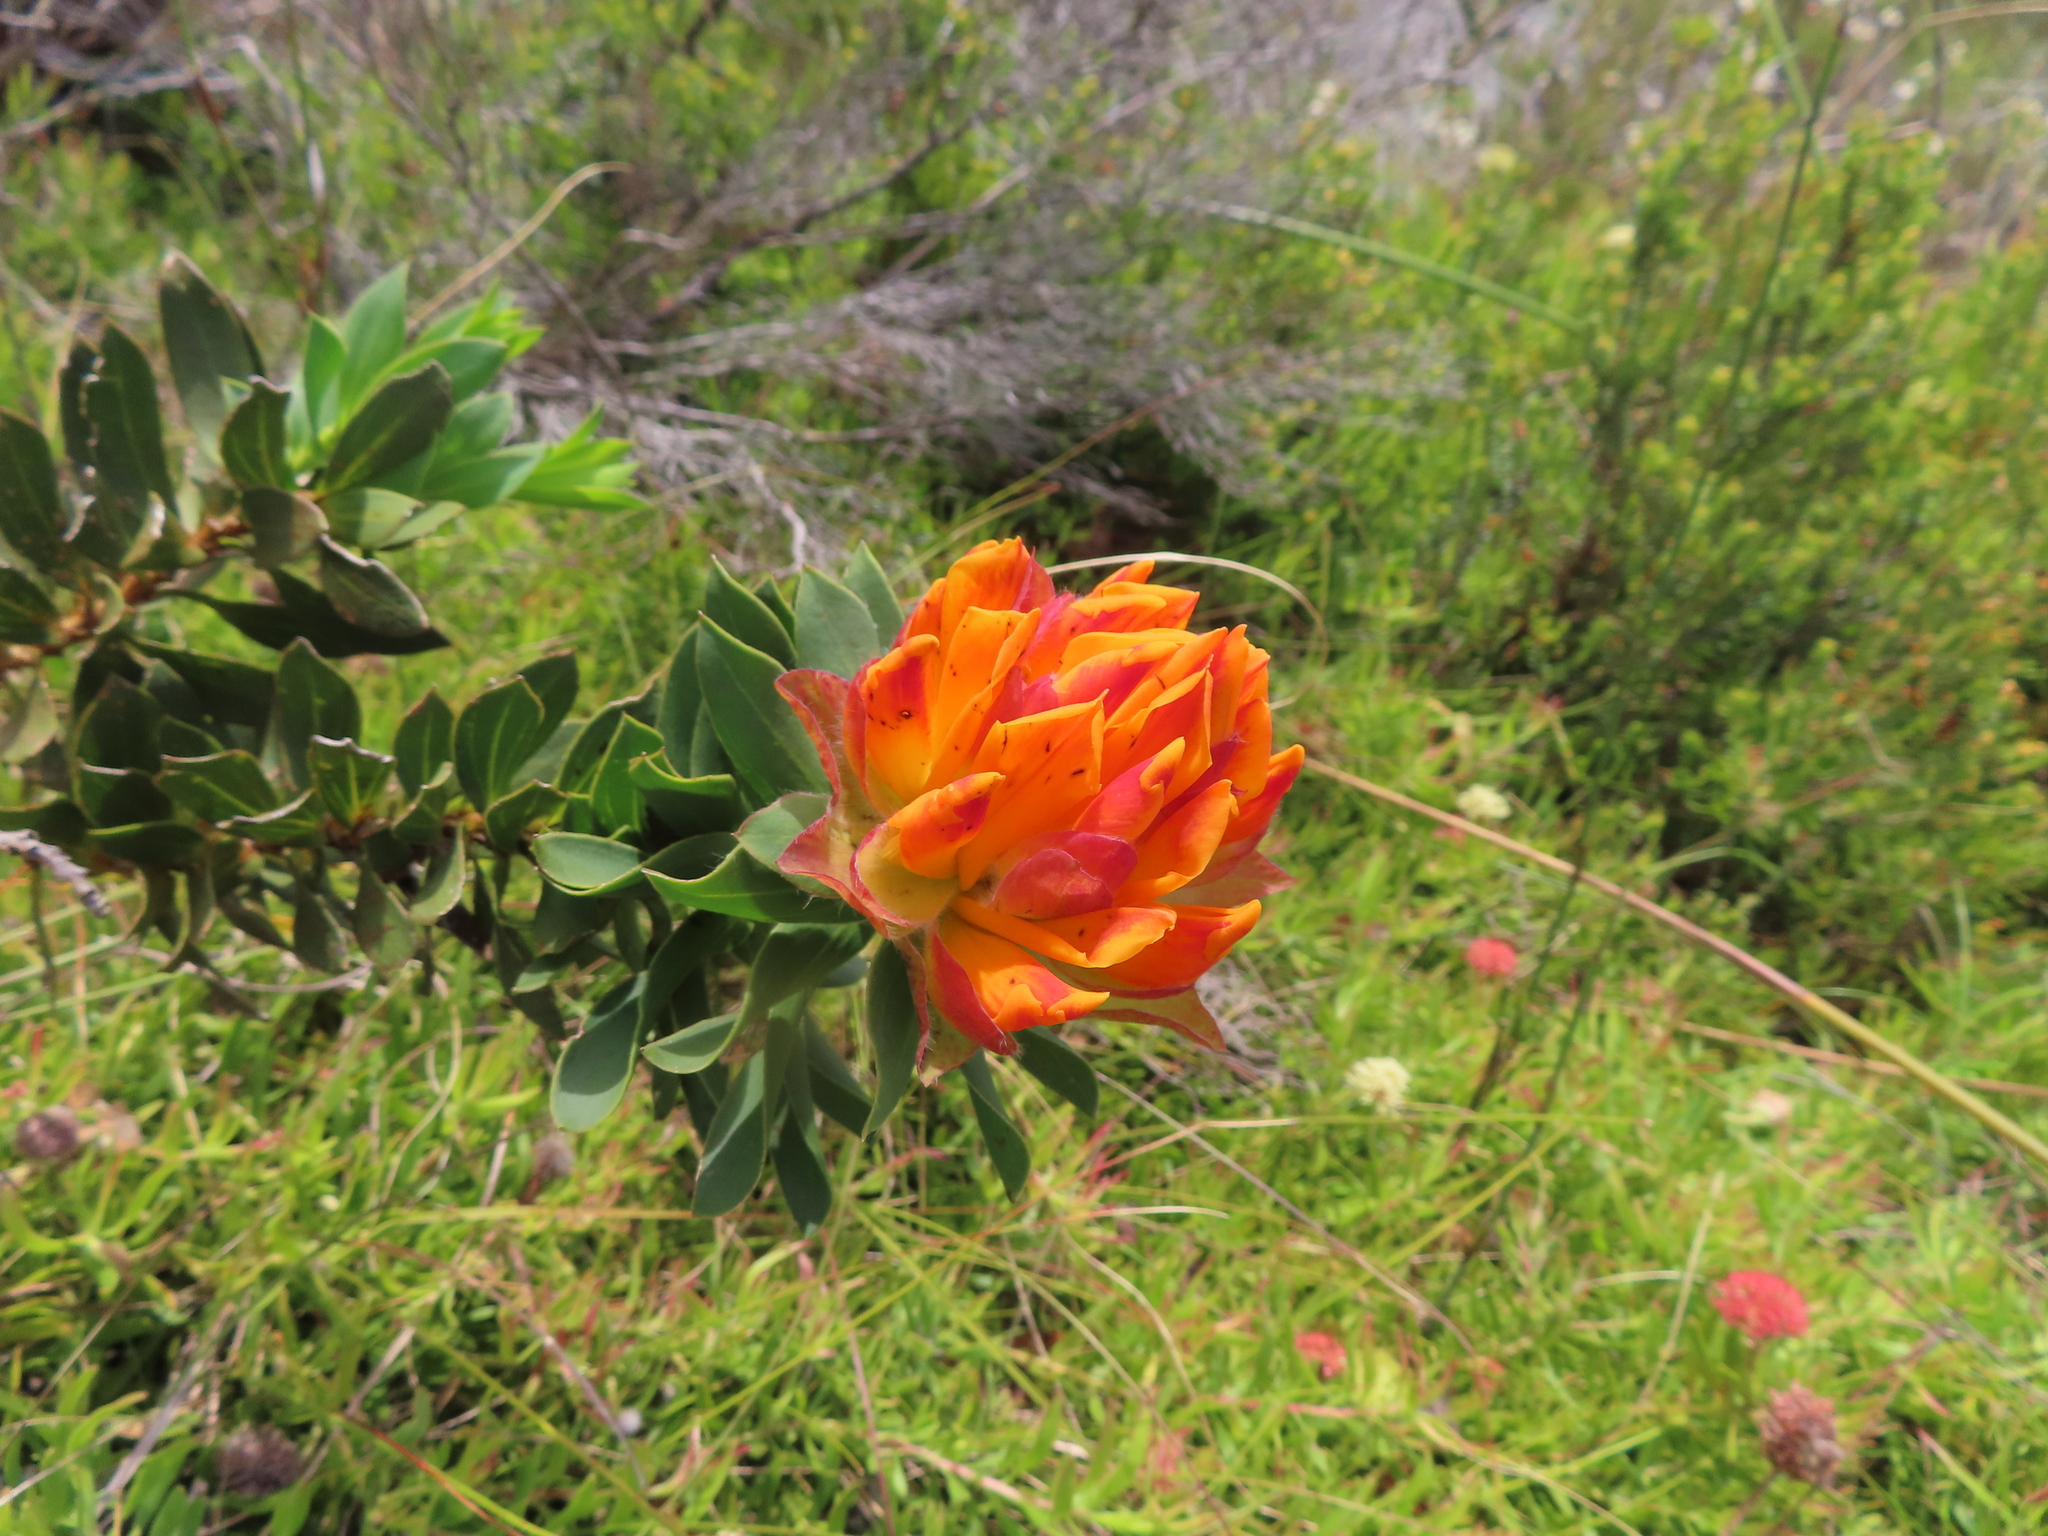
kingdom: Plantae
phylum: Tracheophyta
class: Magnoliopsida
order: Fabales
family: Fabaceae
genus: Liparia
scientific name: Liparia splendens
